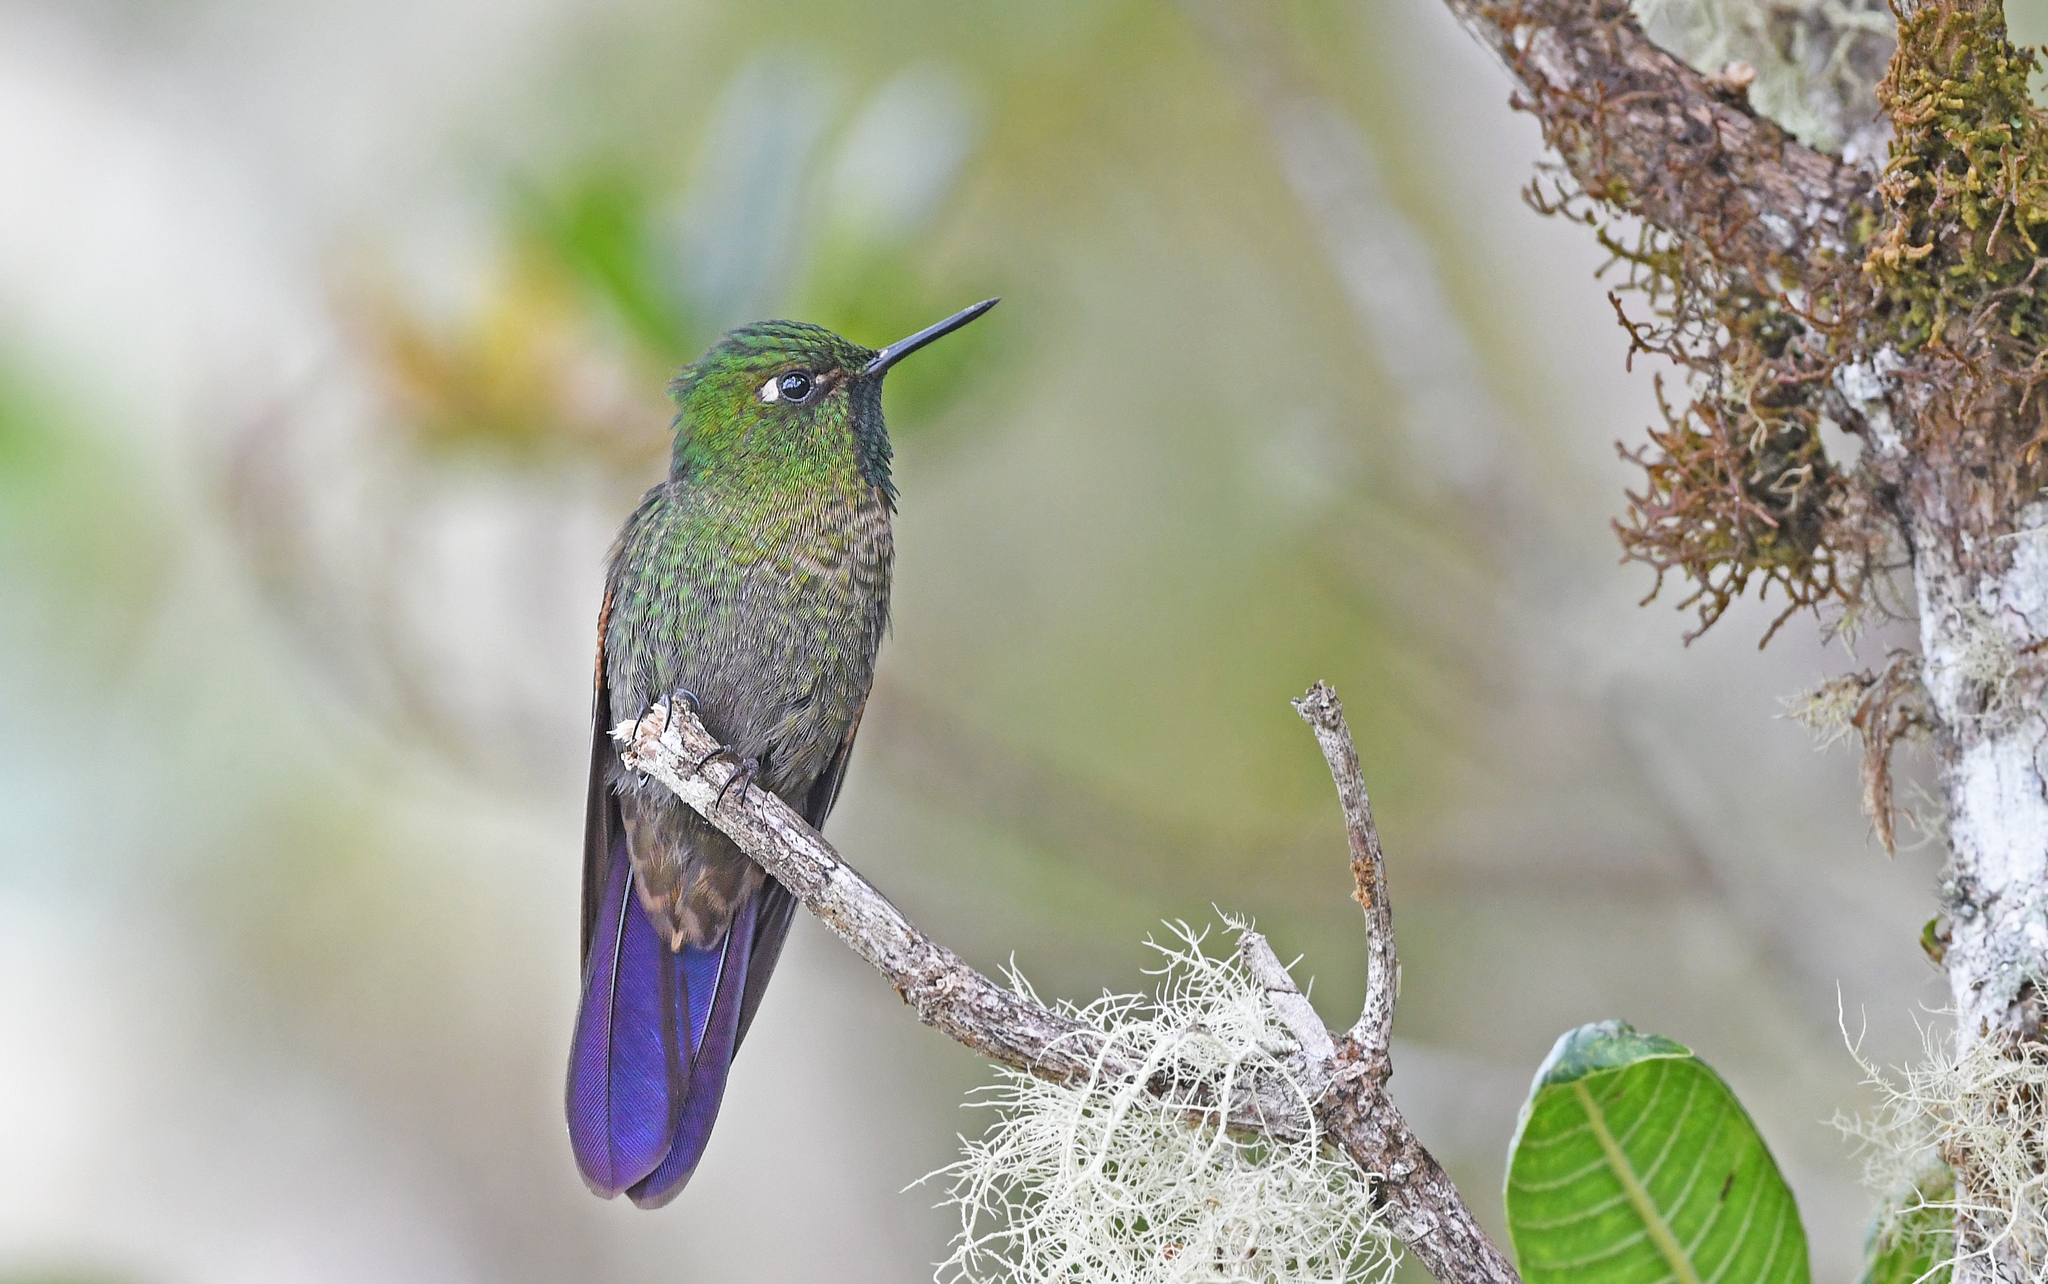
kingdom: Animalia
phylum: Chordata
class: Aves
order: Apodiformes
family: Trochilidae
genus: Metallura
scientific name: Metallura tyrianthina
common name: Tyrian metaltail
